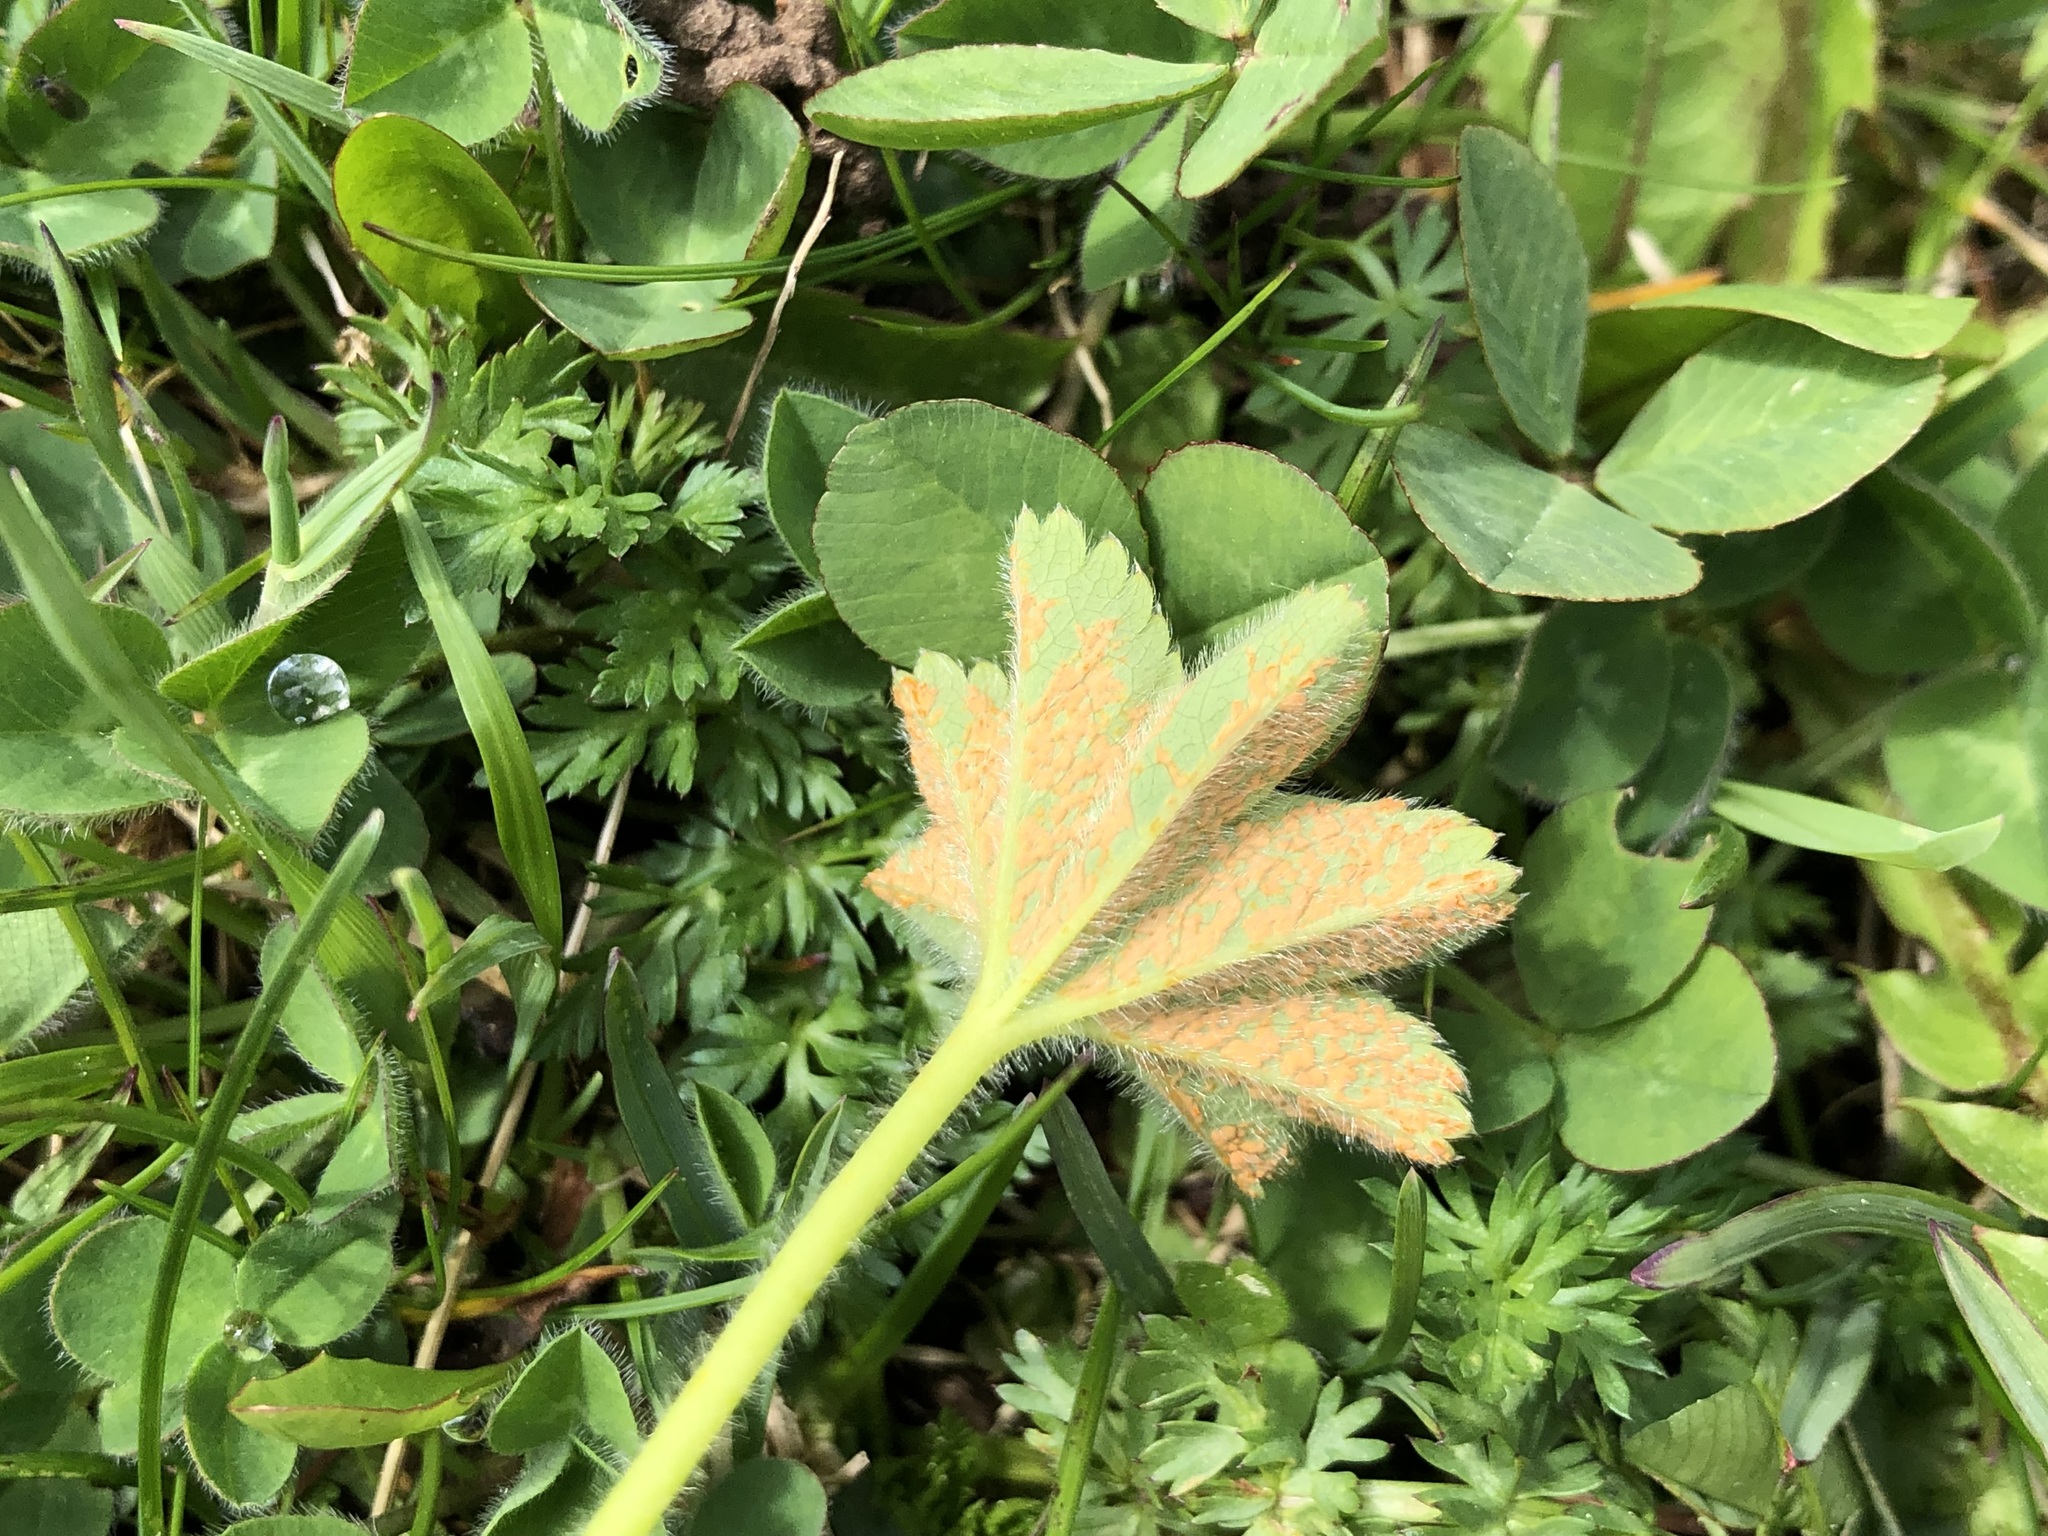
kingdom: Fungi
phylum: Basidiomycota
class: Pucciniomycetes
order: Pucciniales
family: Phragmidiaceae
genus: Trachyspora
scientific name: Trachyspora alchemillae
